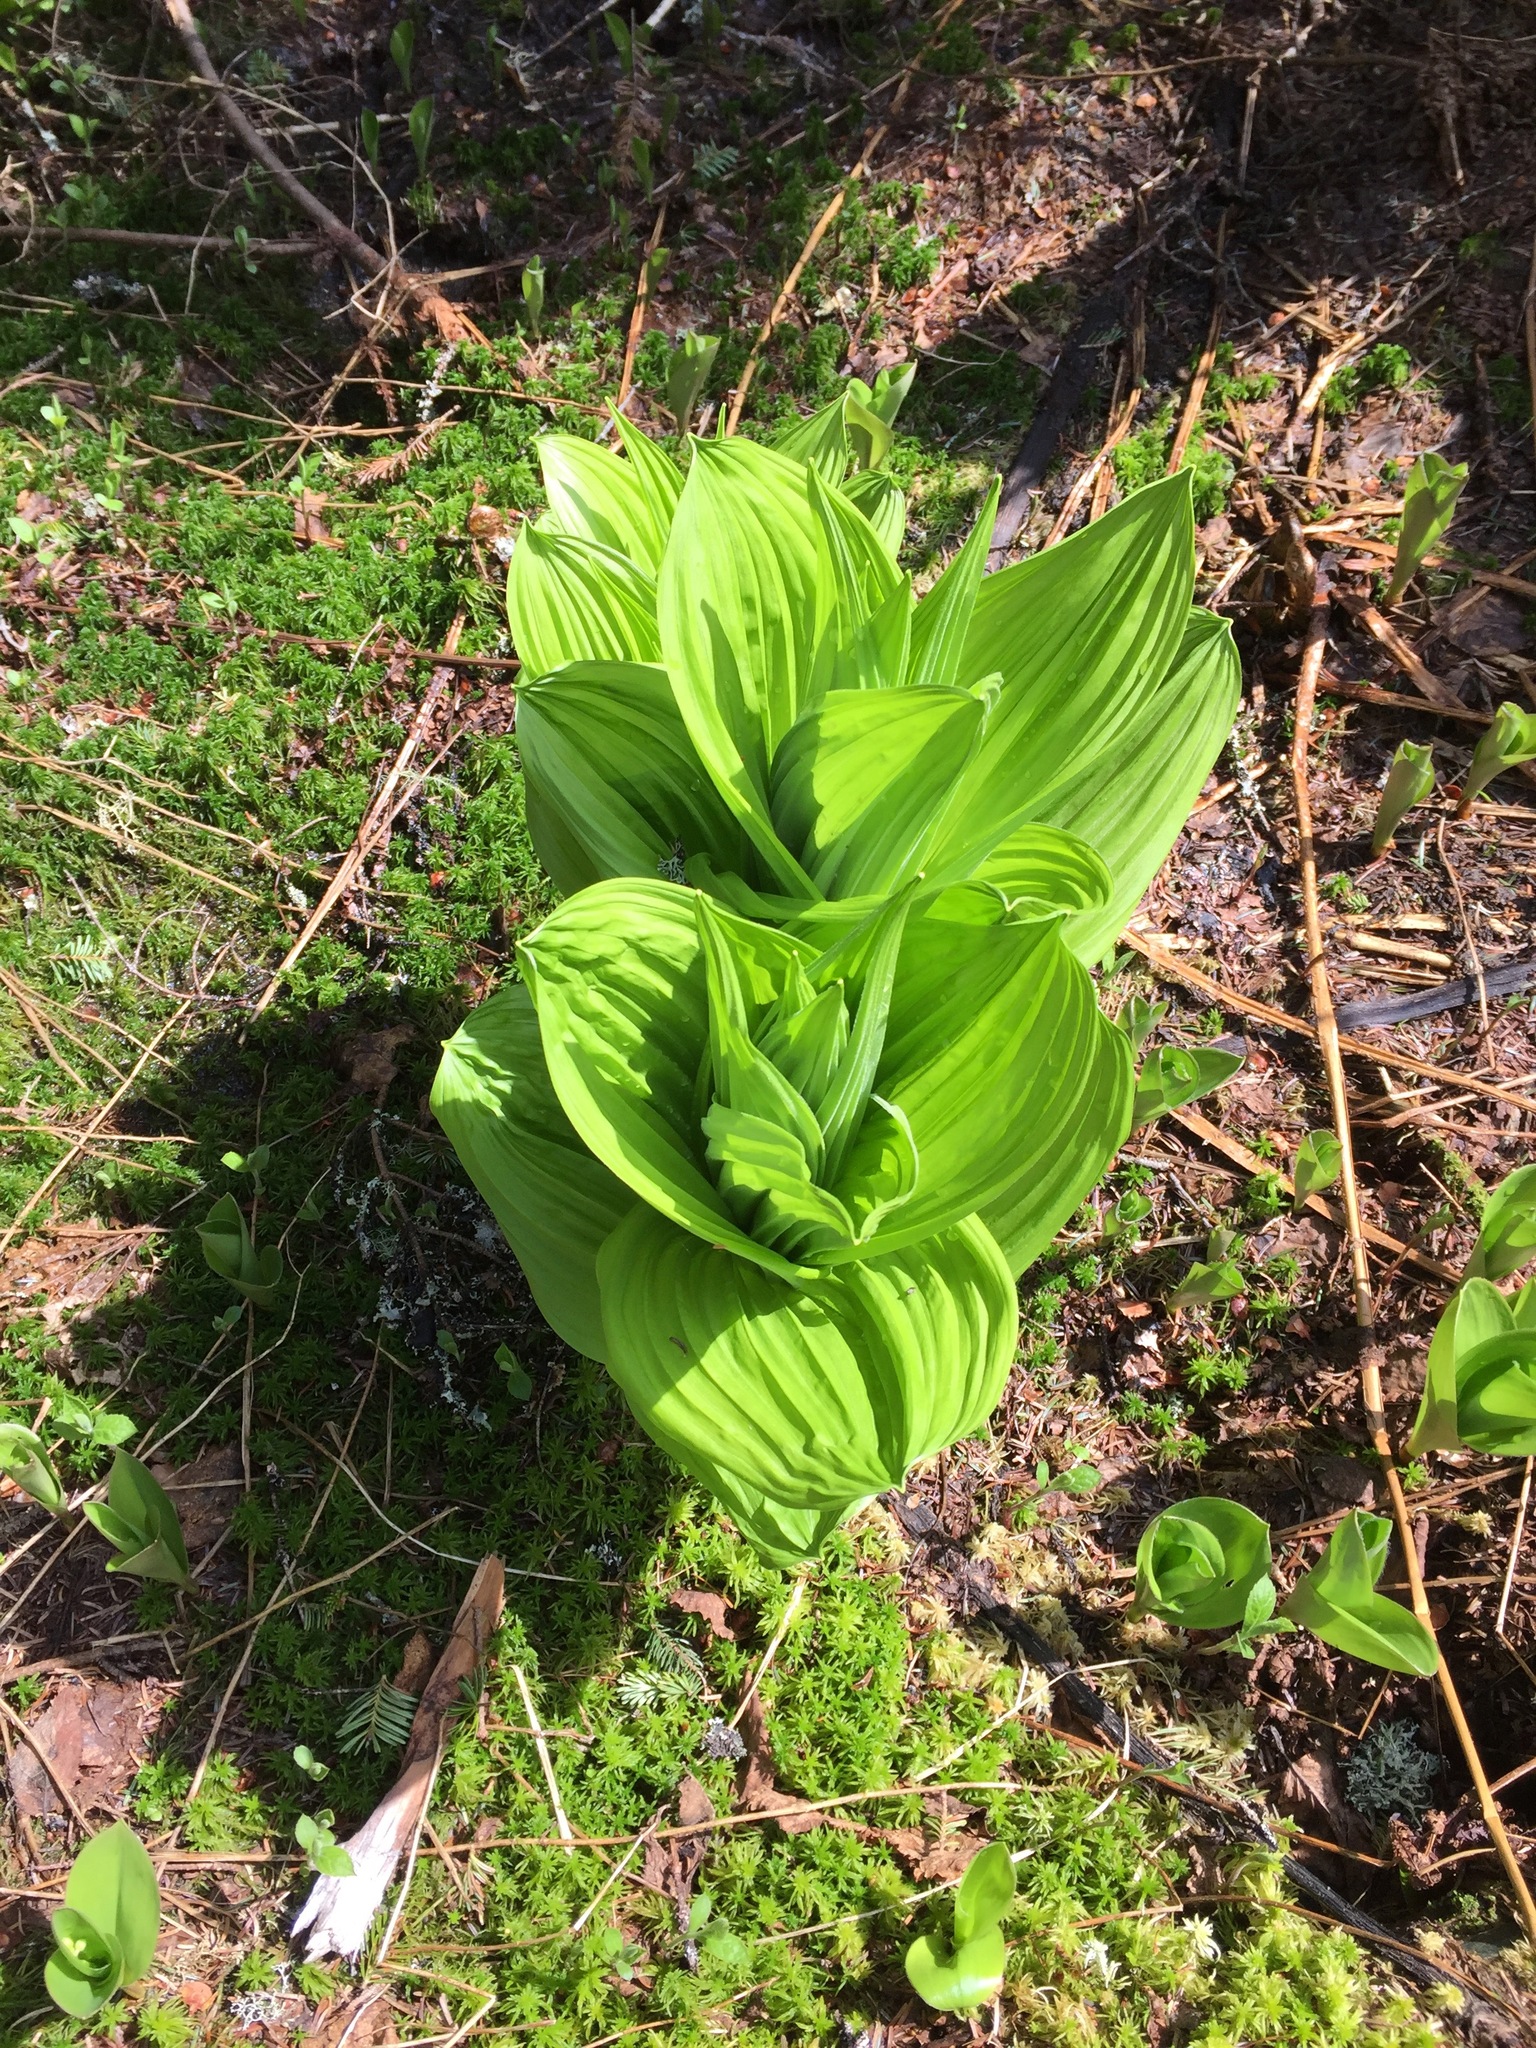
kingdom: Plantae
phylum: Tracheophyta
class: Liliopsida
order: Liliales
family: Melanthiaceae
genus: Veratrum
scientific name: Veratrum viride
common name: American false hellebore
